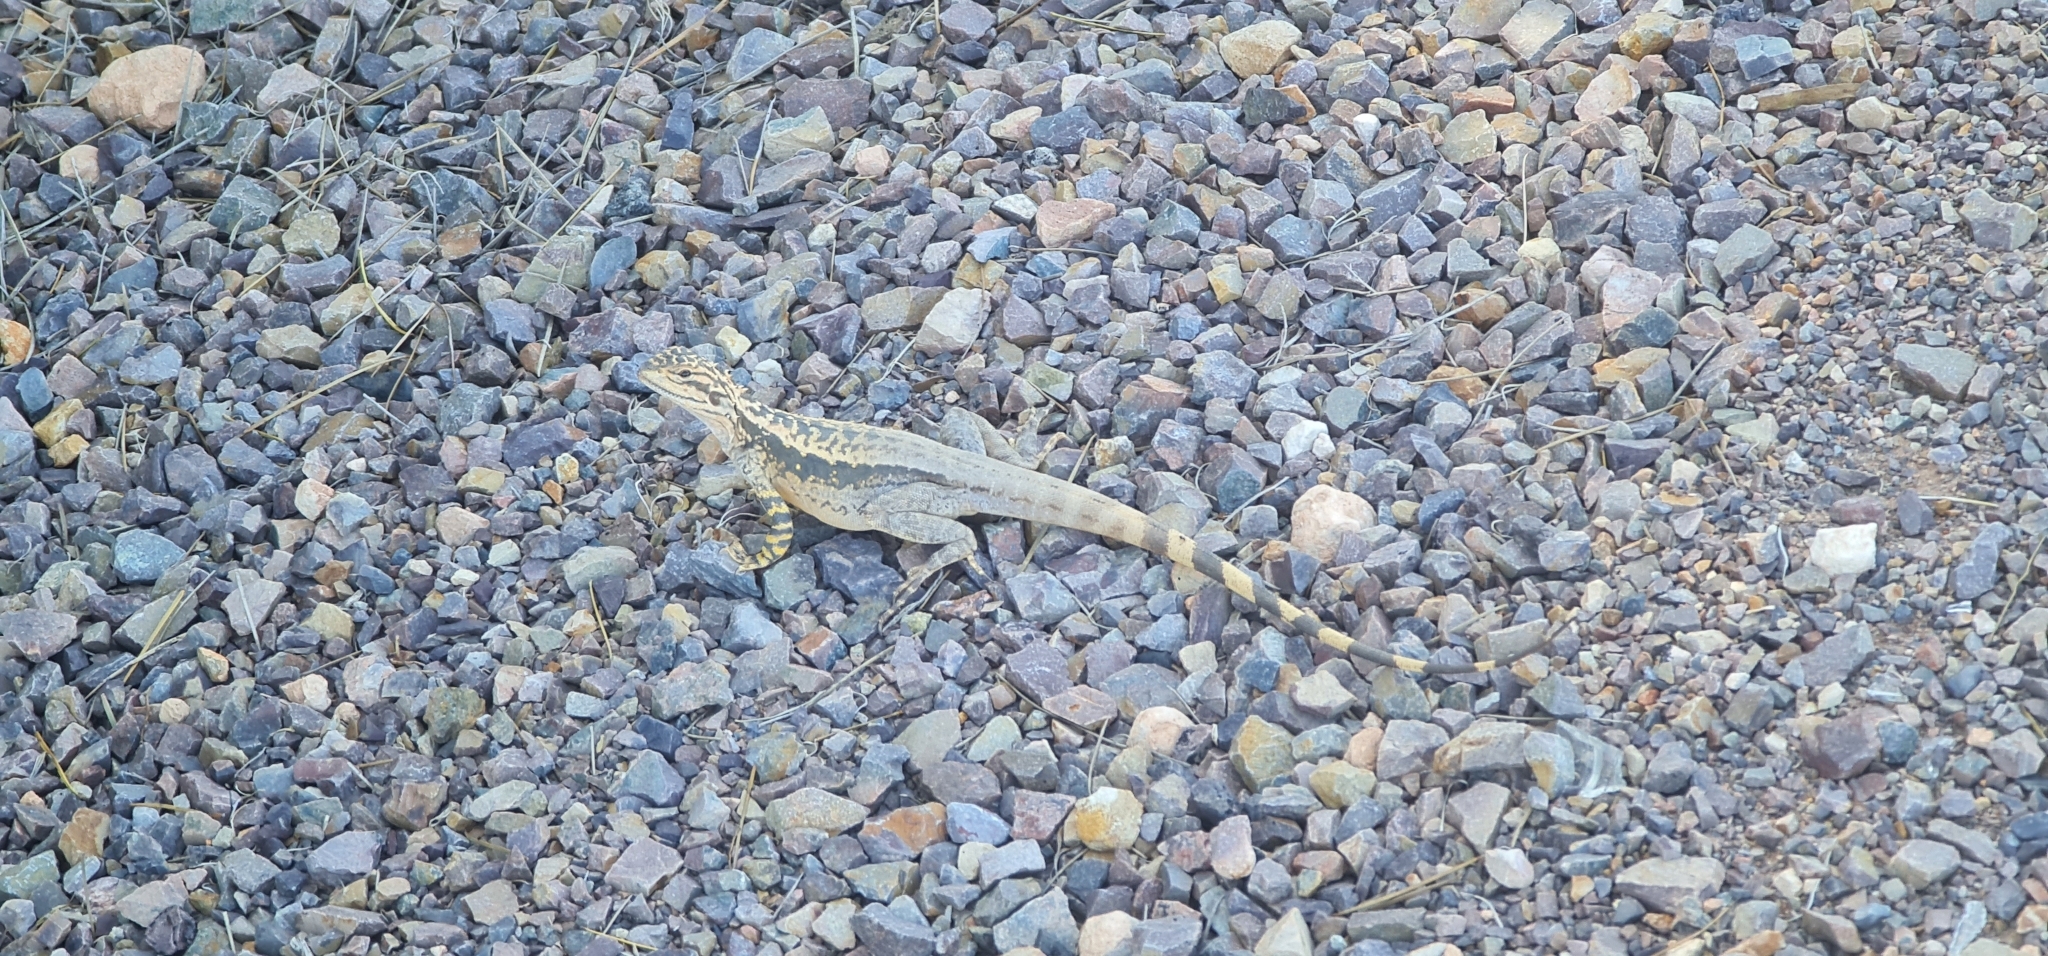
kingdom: Animalia
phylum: Chordata
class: Squamata
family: Agamidae
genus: Ctenophorus
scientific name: Ctenophorus cristatus
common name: Crested dragon
